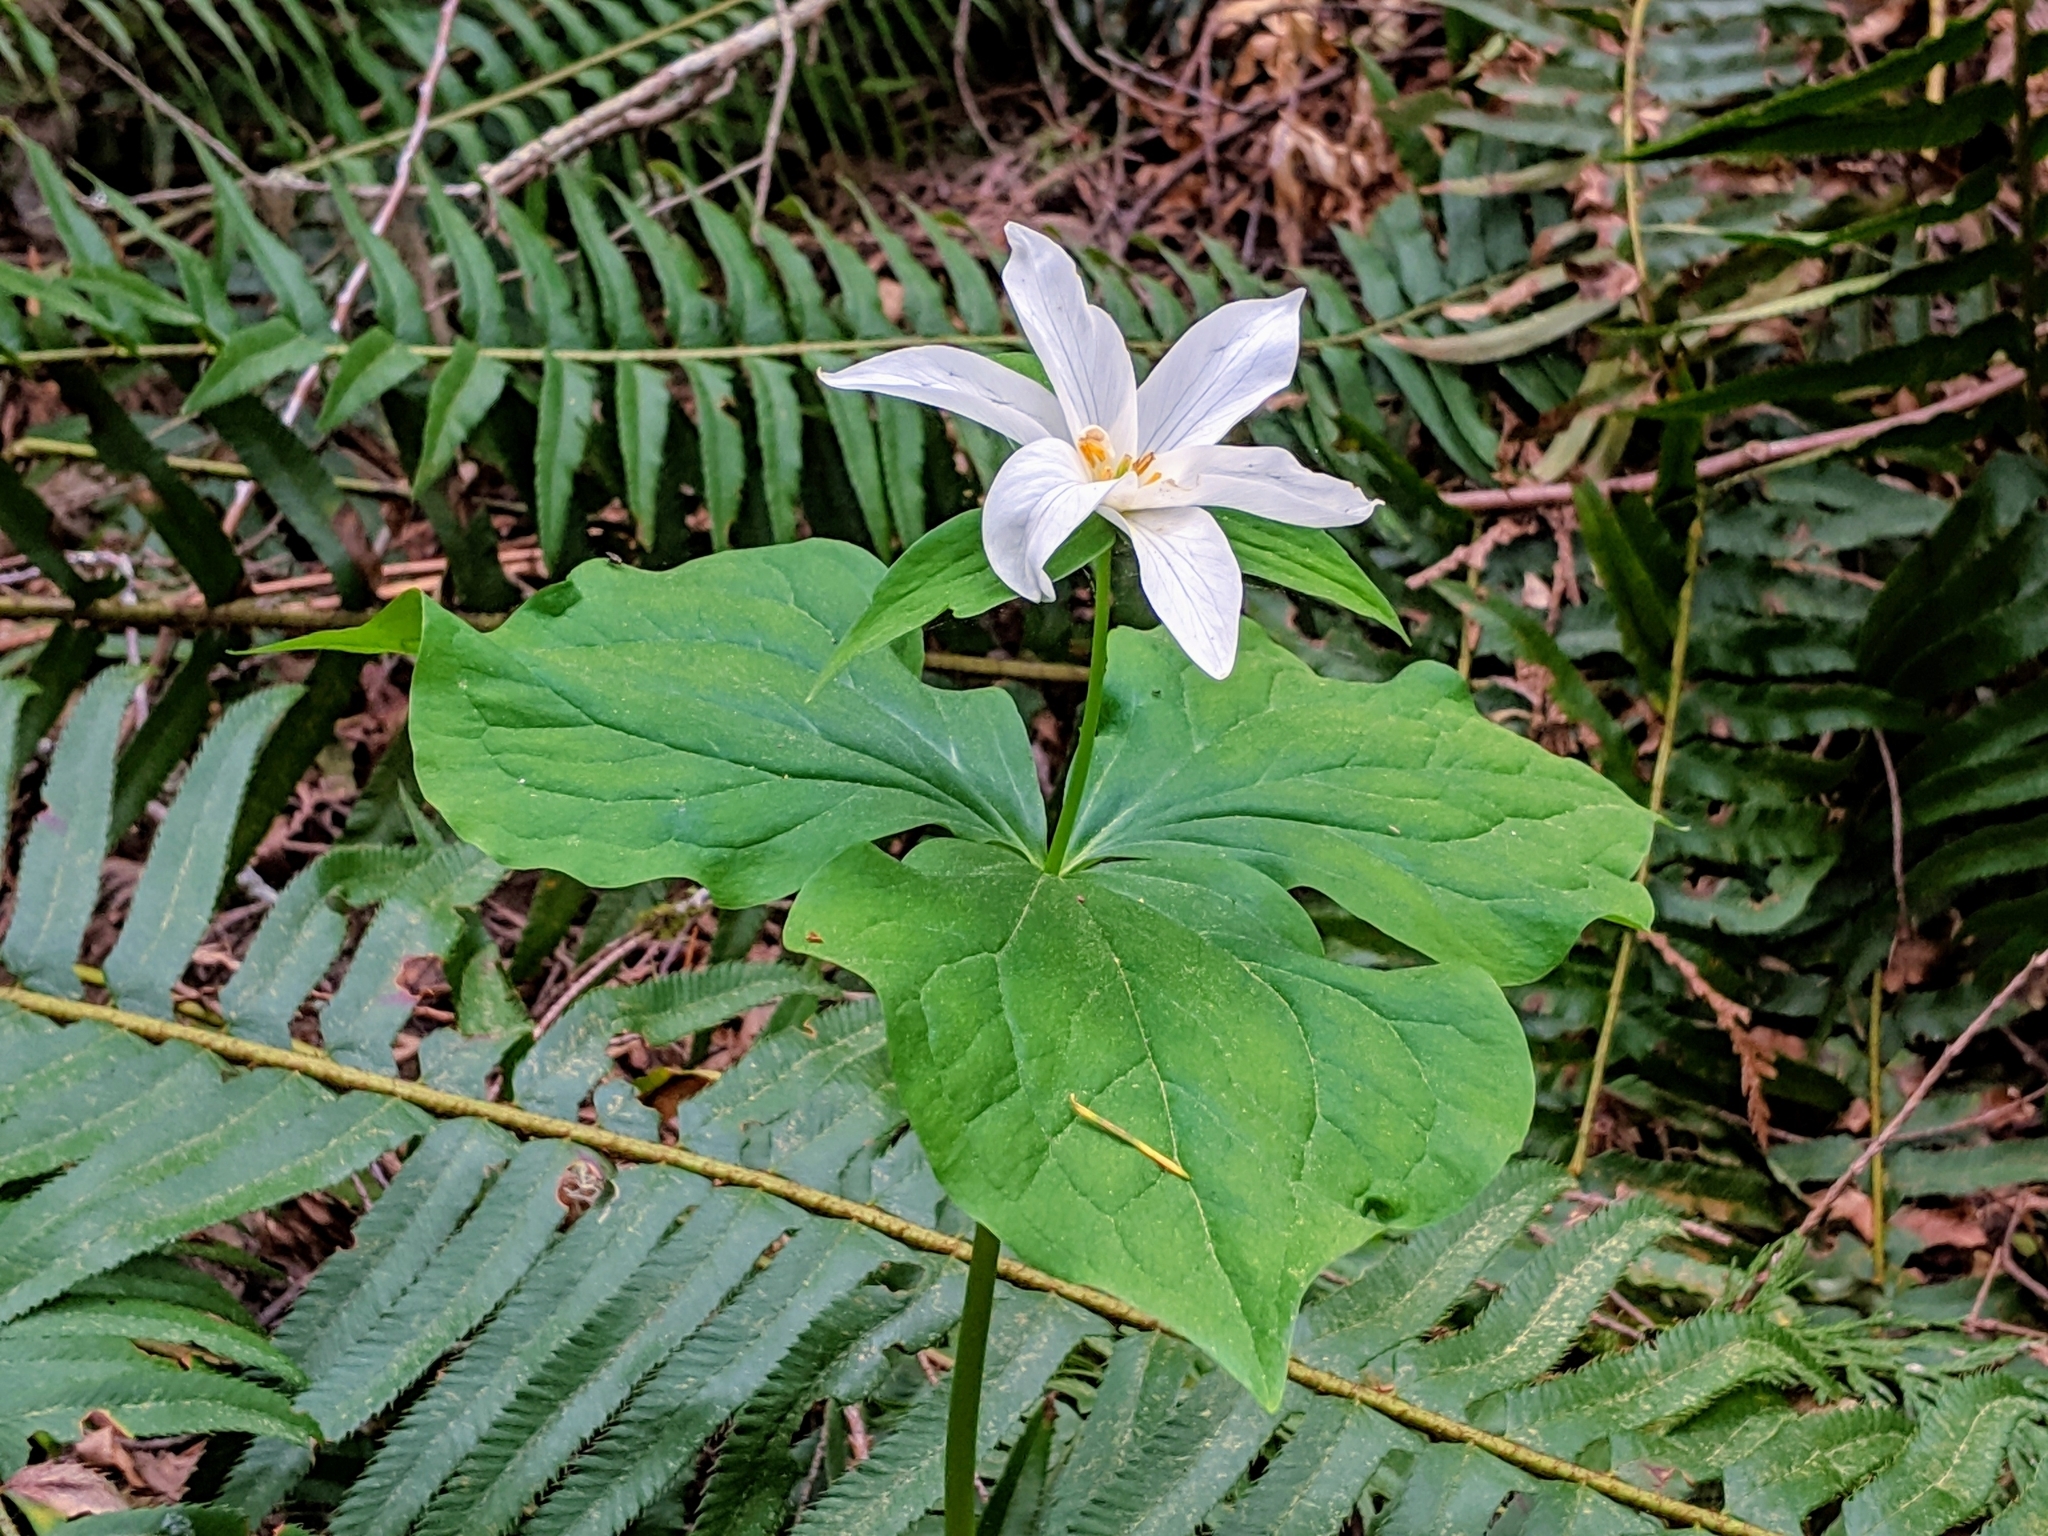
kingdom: Plantae
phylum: Tracheophyta
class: Liliopsida
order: Liliales
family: Melanthiaceae
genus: Trillium
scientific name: Trillium ovatum
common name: Pacific trillium
